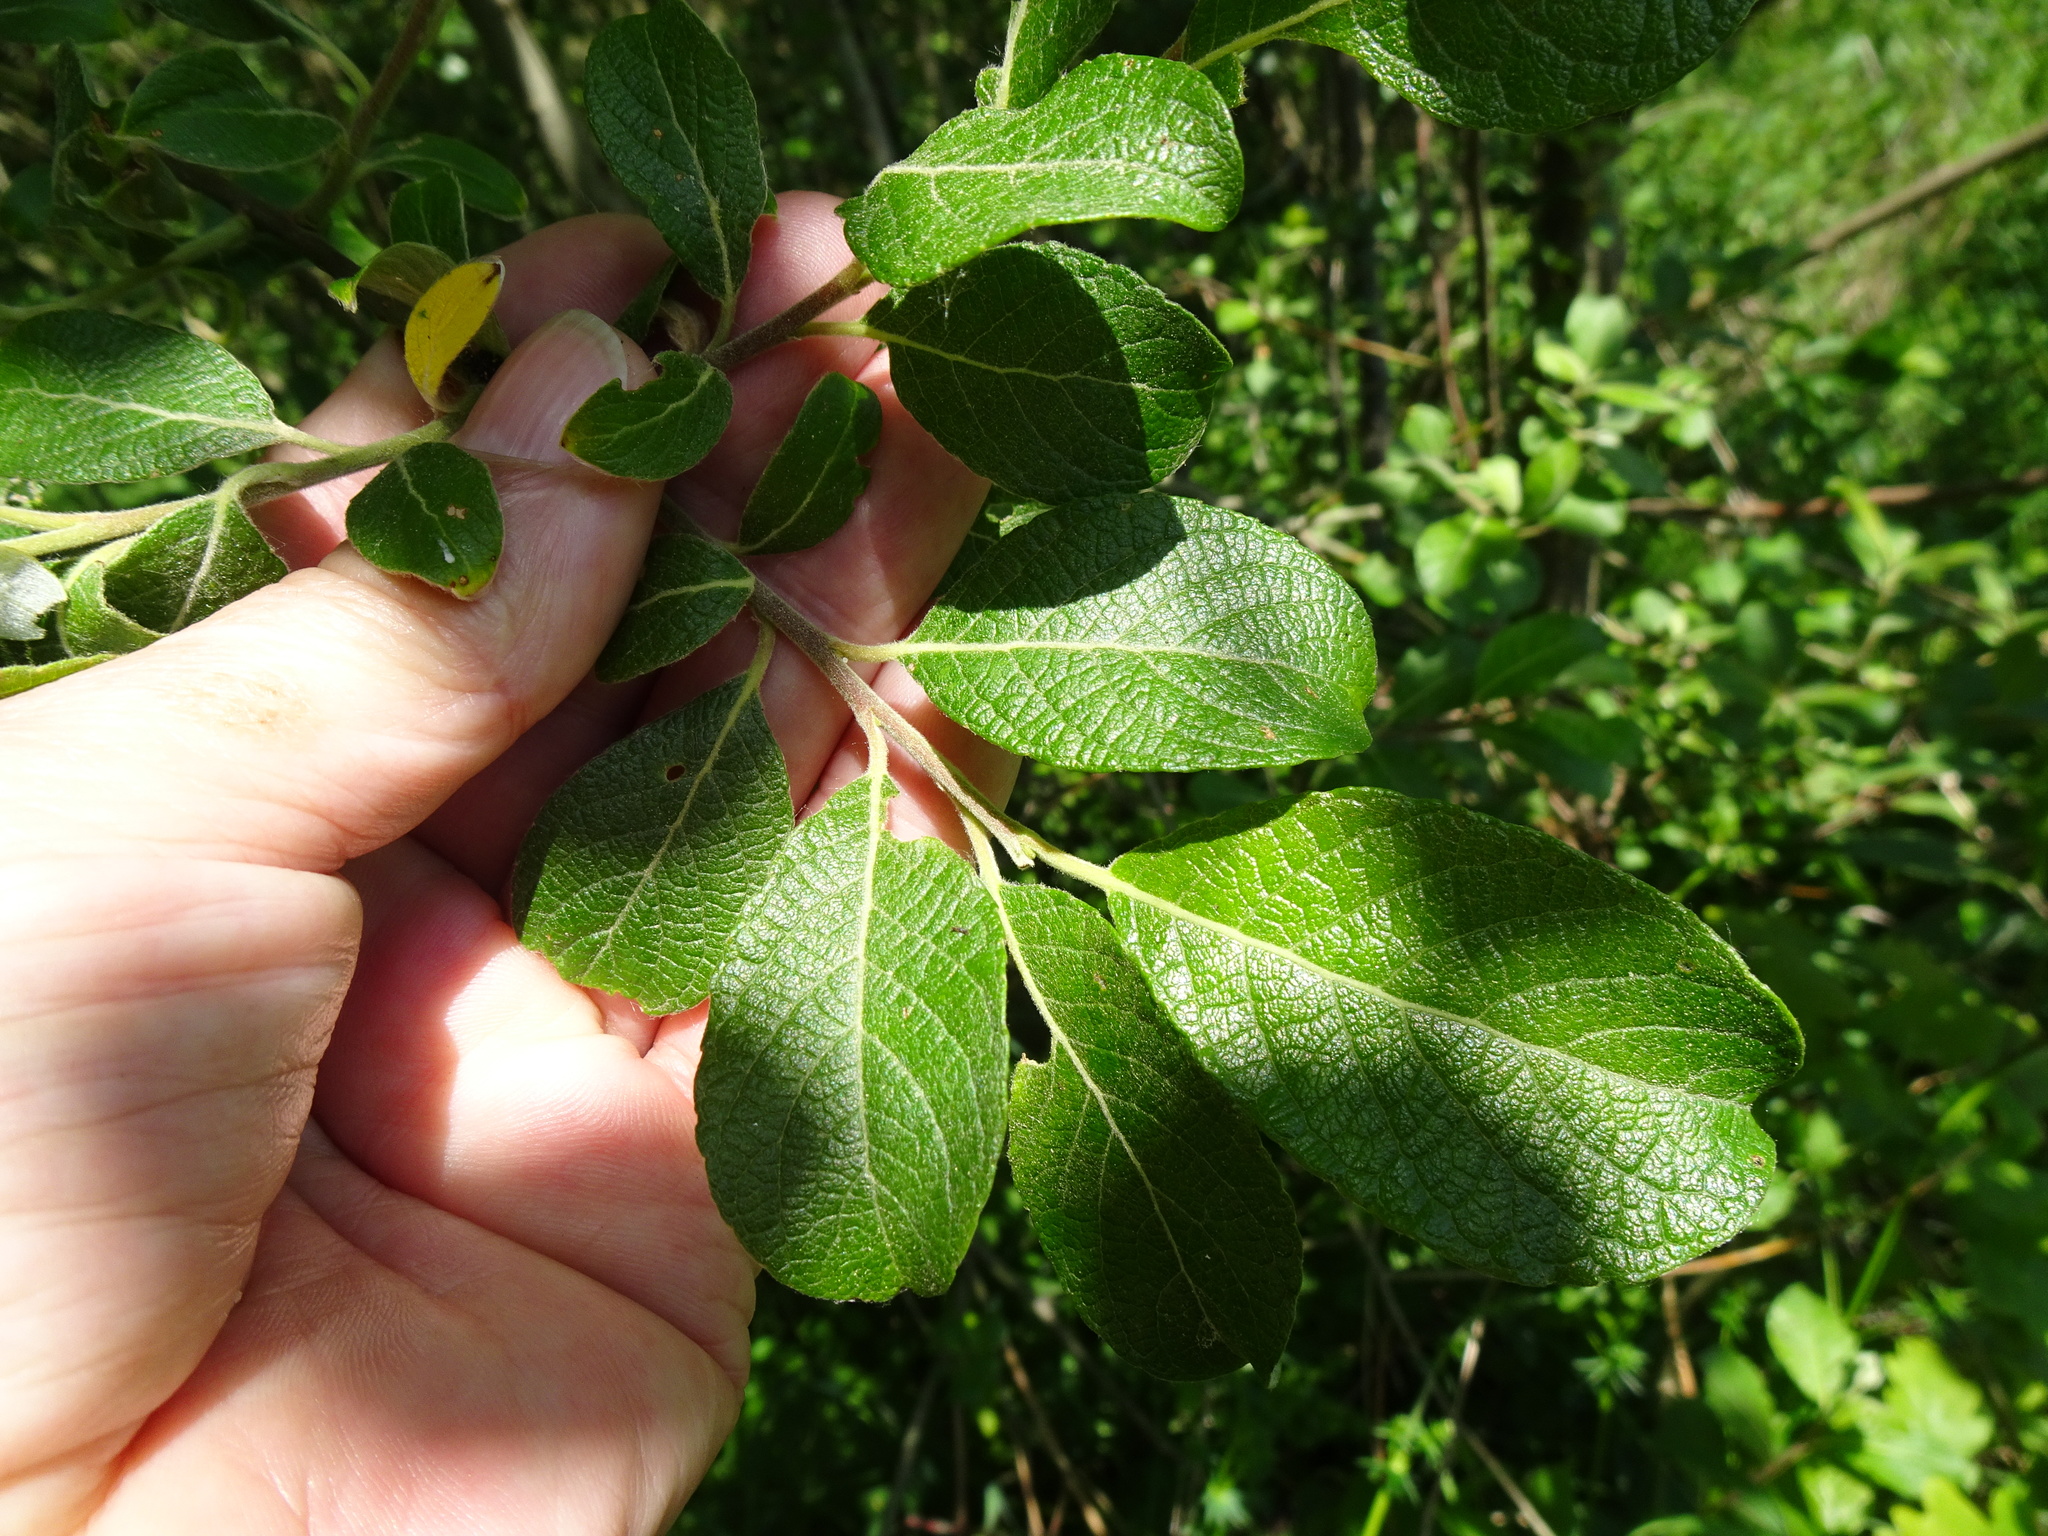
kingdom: Plantae
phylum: Tracheophyta
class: Magnoliopsida
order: Malpighiales
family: Salicaceae
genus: Salix
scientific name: Salix caprea
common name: Goat willow
